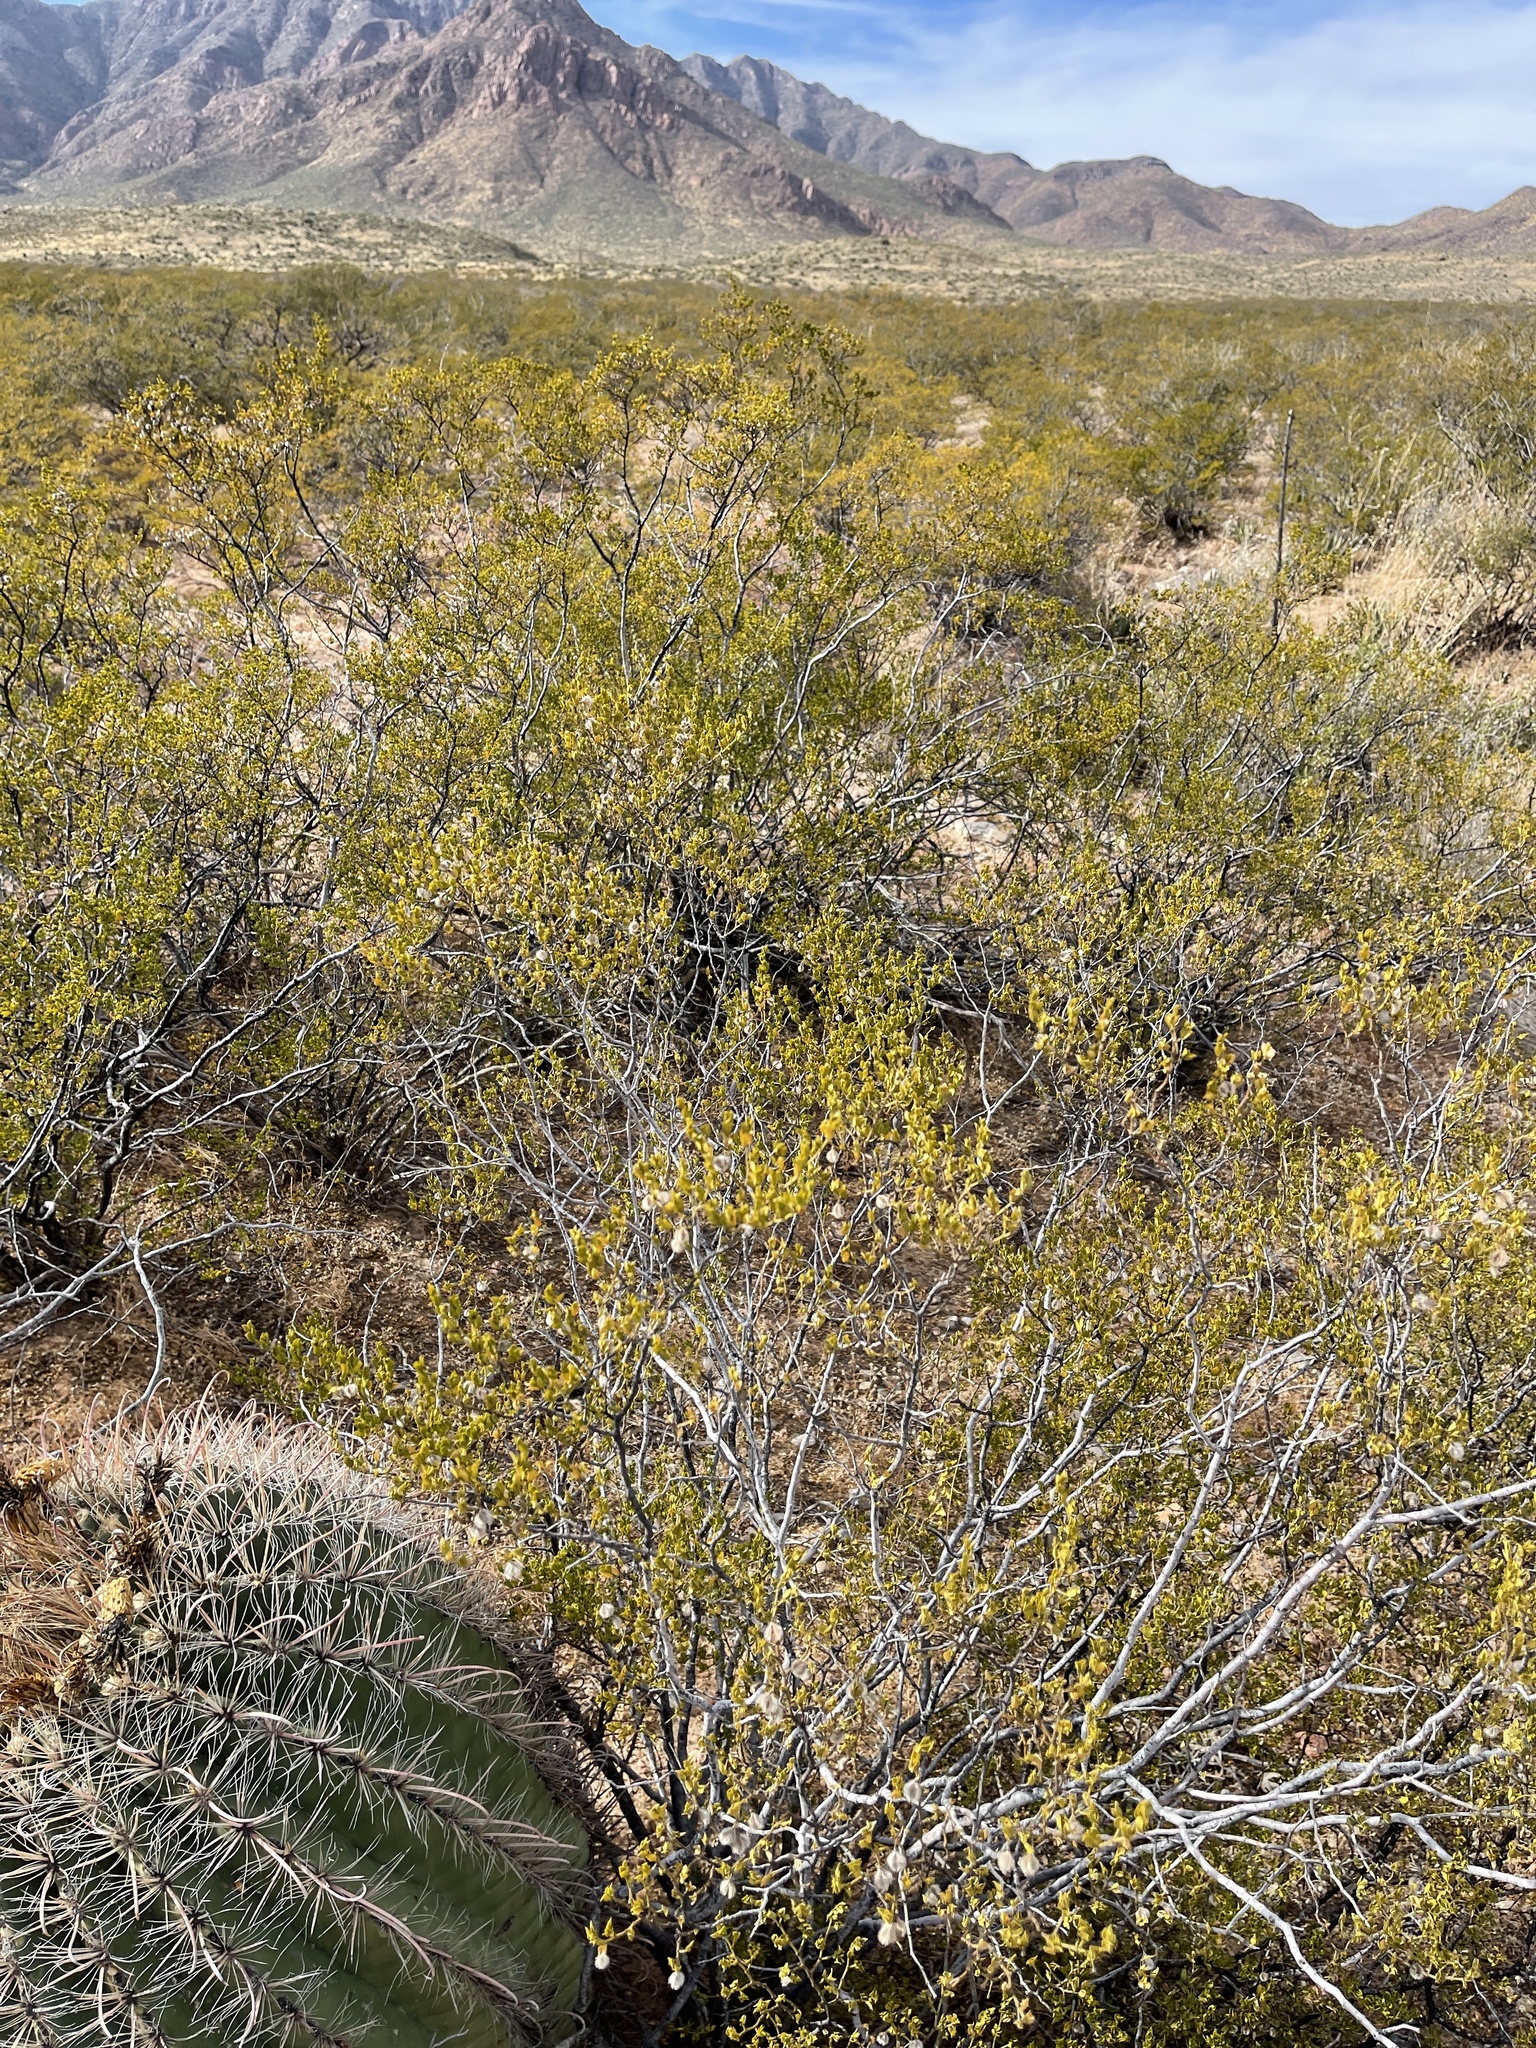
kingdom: Plantae
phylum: Tracheophyta
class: Magnoliopsida
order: Zygophyllales
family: Zygophyllaceae
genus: Larrea
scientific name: Larrea tridentata
